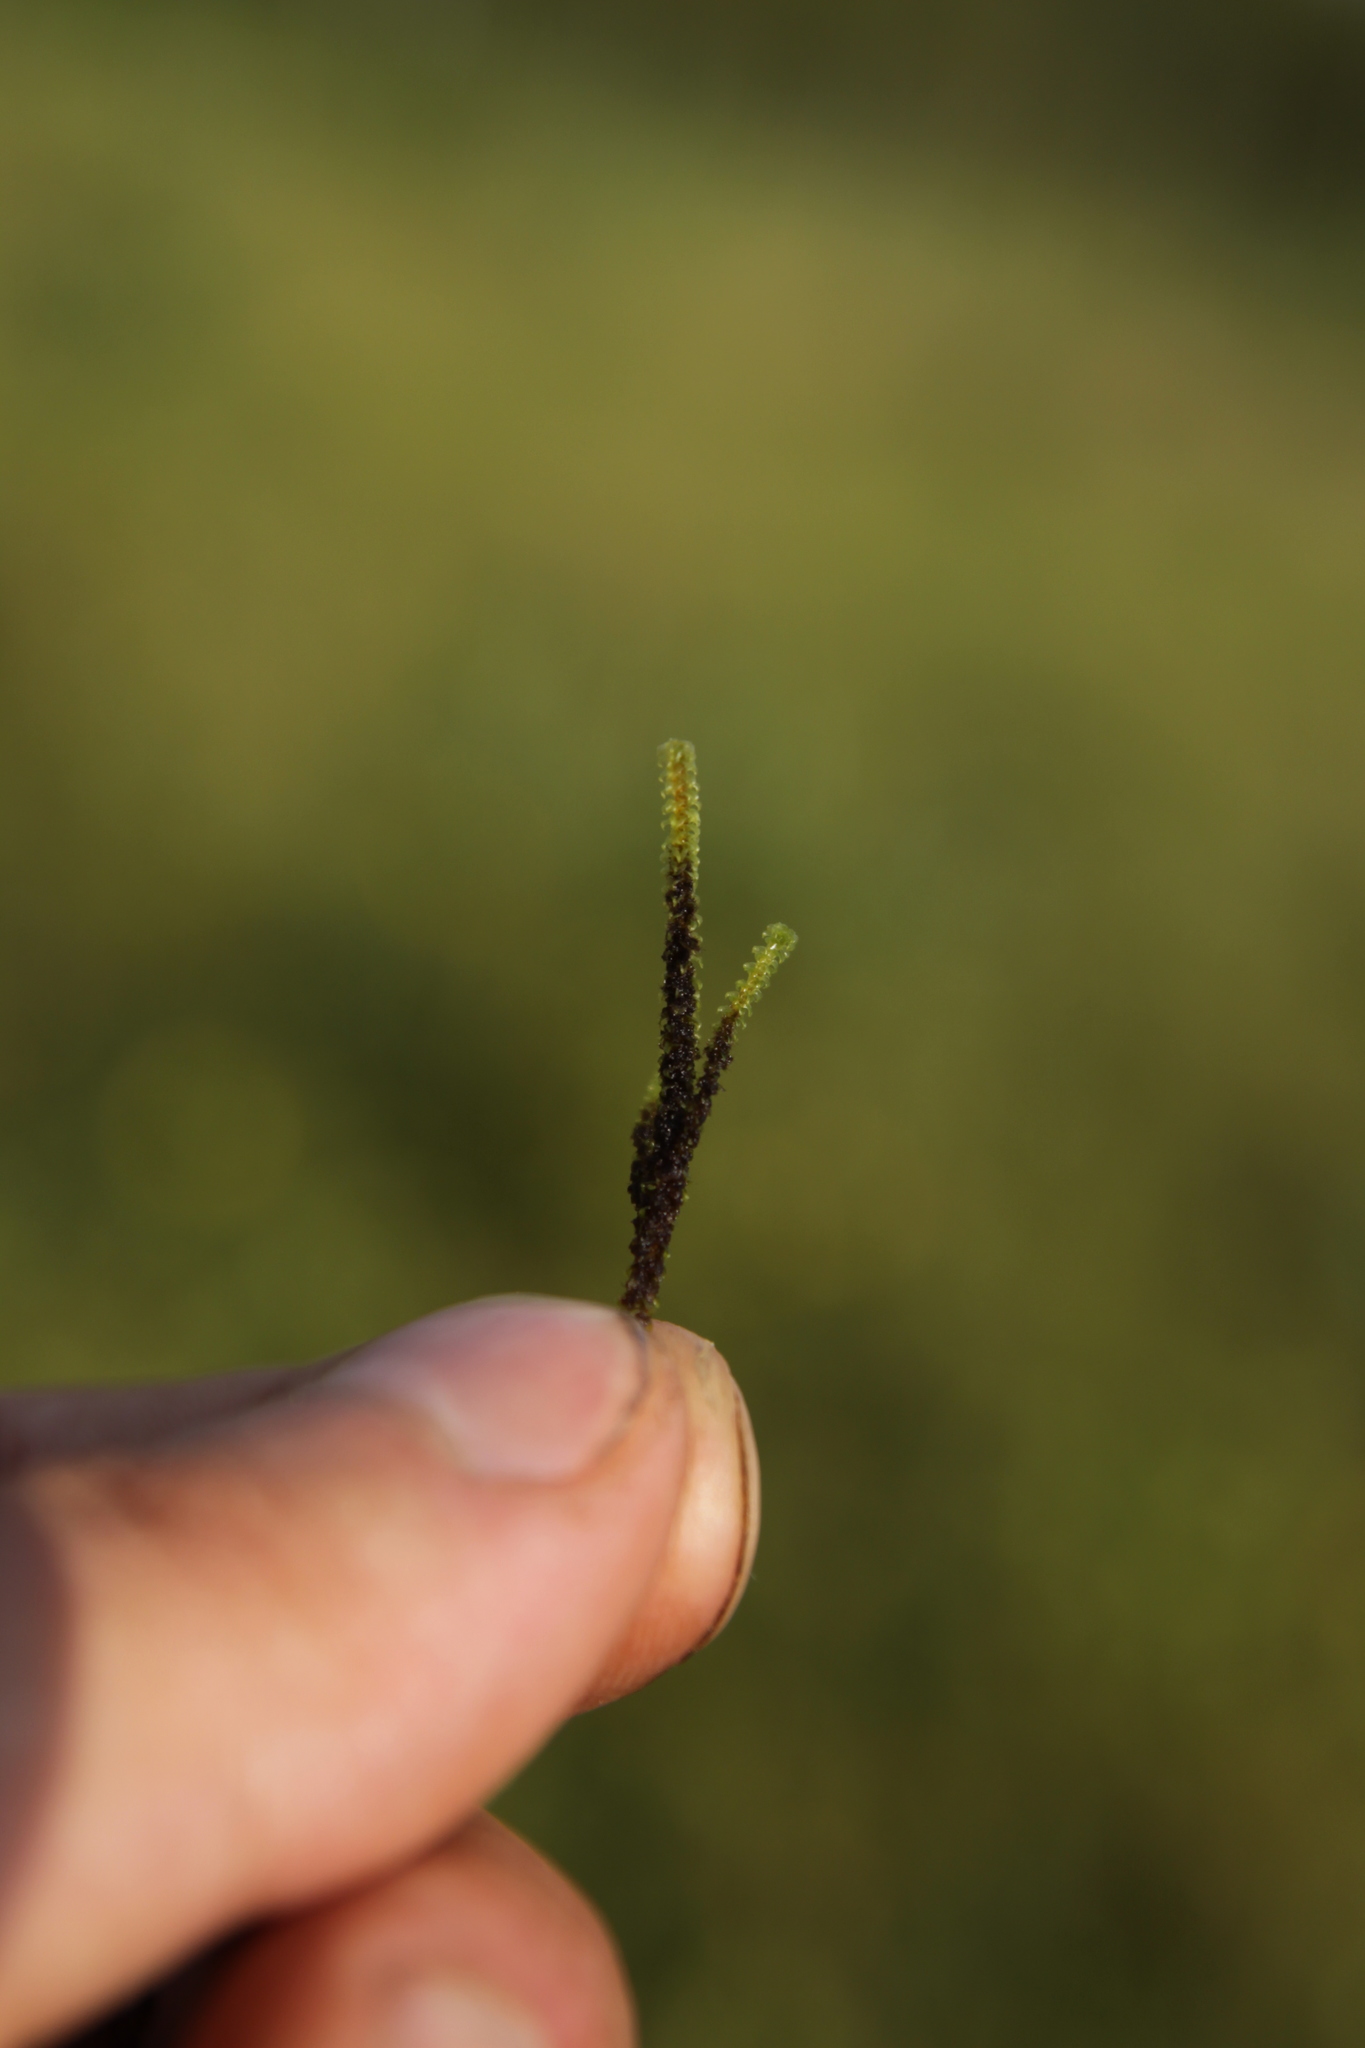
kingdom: Plantae
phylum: Bryophyta
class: Bryopsida
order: Splachnales
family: Meesiaceae
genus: Paludella
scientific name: Paludella squarrosa
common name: Tufted fen moss
